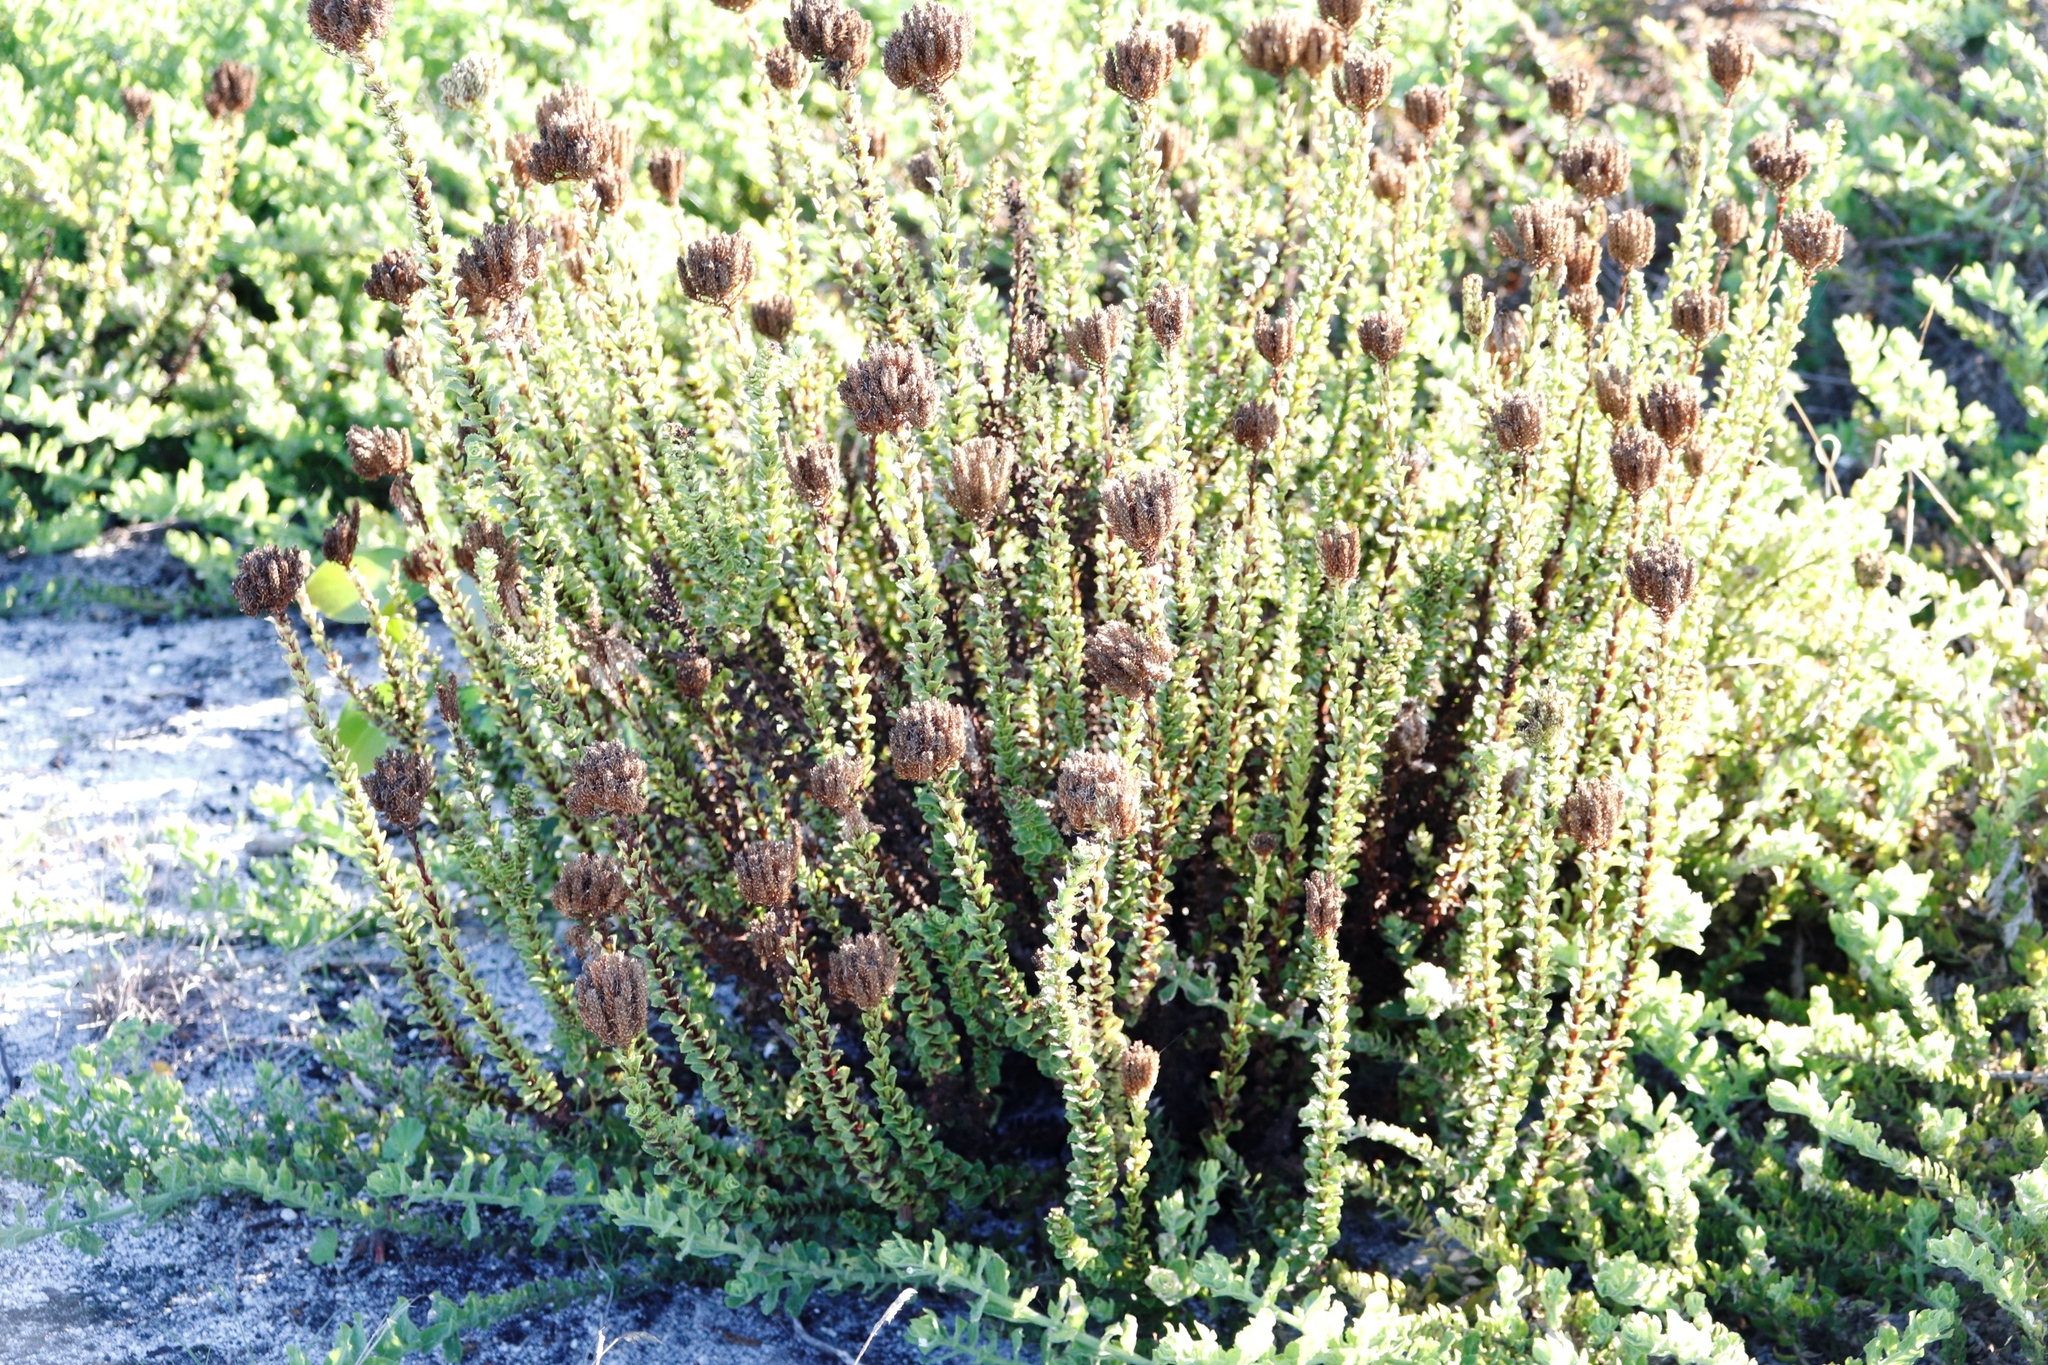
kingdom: Plantae
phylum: Tracheophyta
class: Magnoliopsida
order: Lamiales
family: Scrophulariaceae
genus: Pseudoselago
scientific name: Pseudoselago serrata
